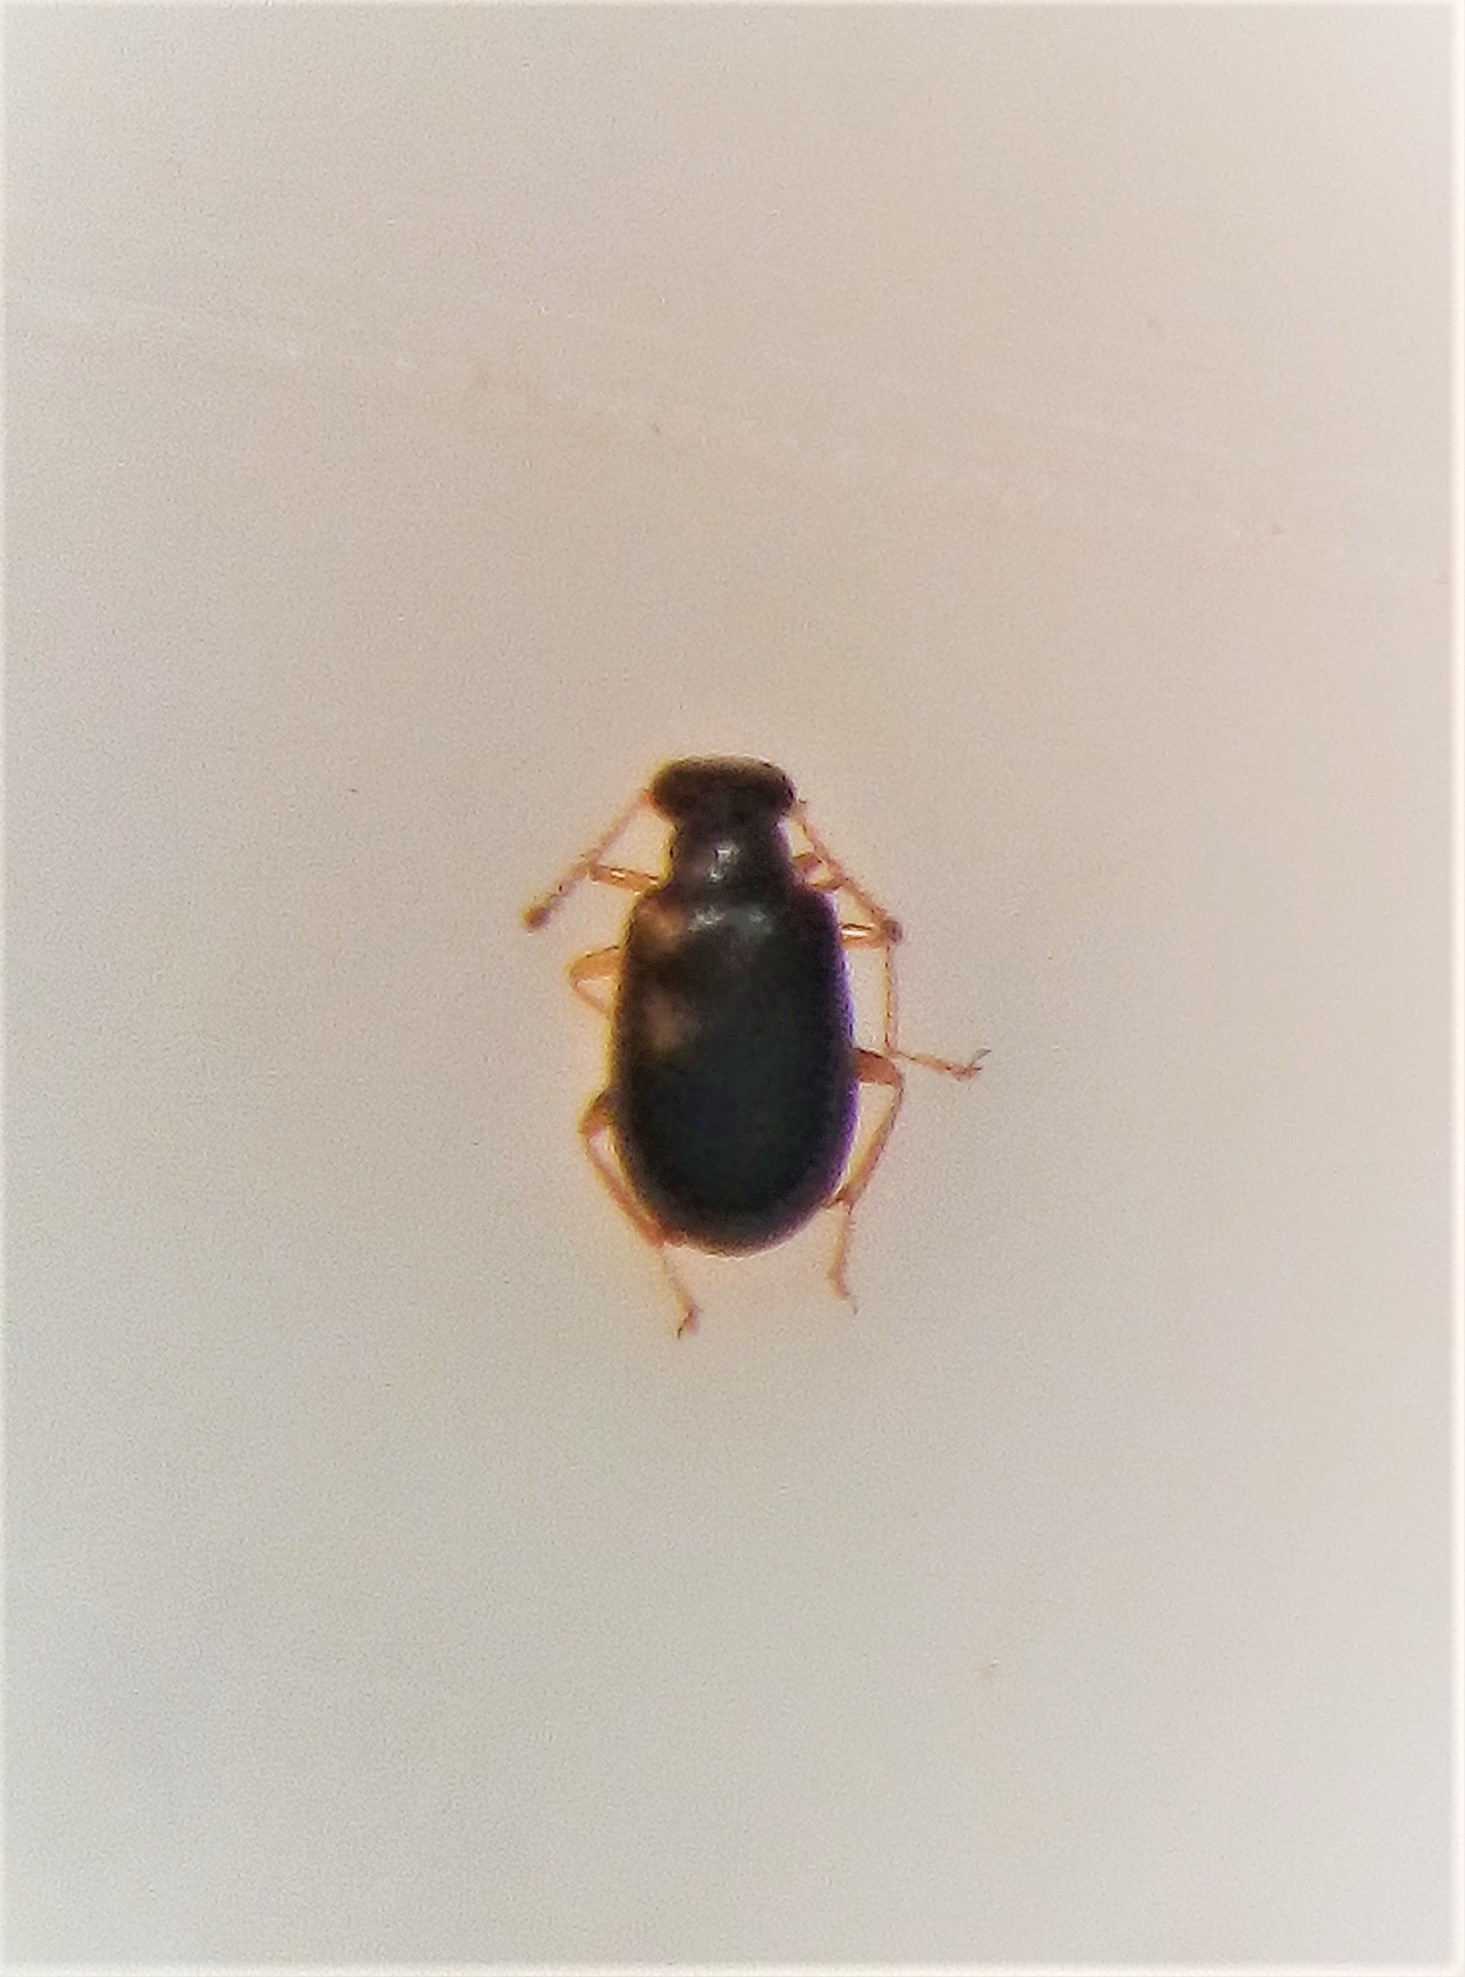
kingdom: Animalia
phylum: Arthropoda
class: Insecta
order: Coleoptera
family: Aderidae
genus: Zenascus
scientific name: Zenascus nitidus
